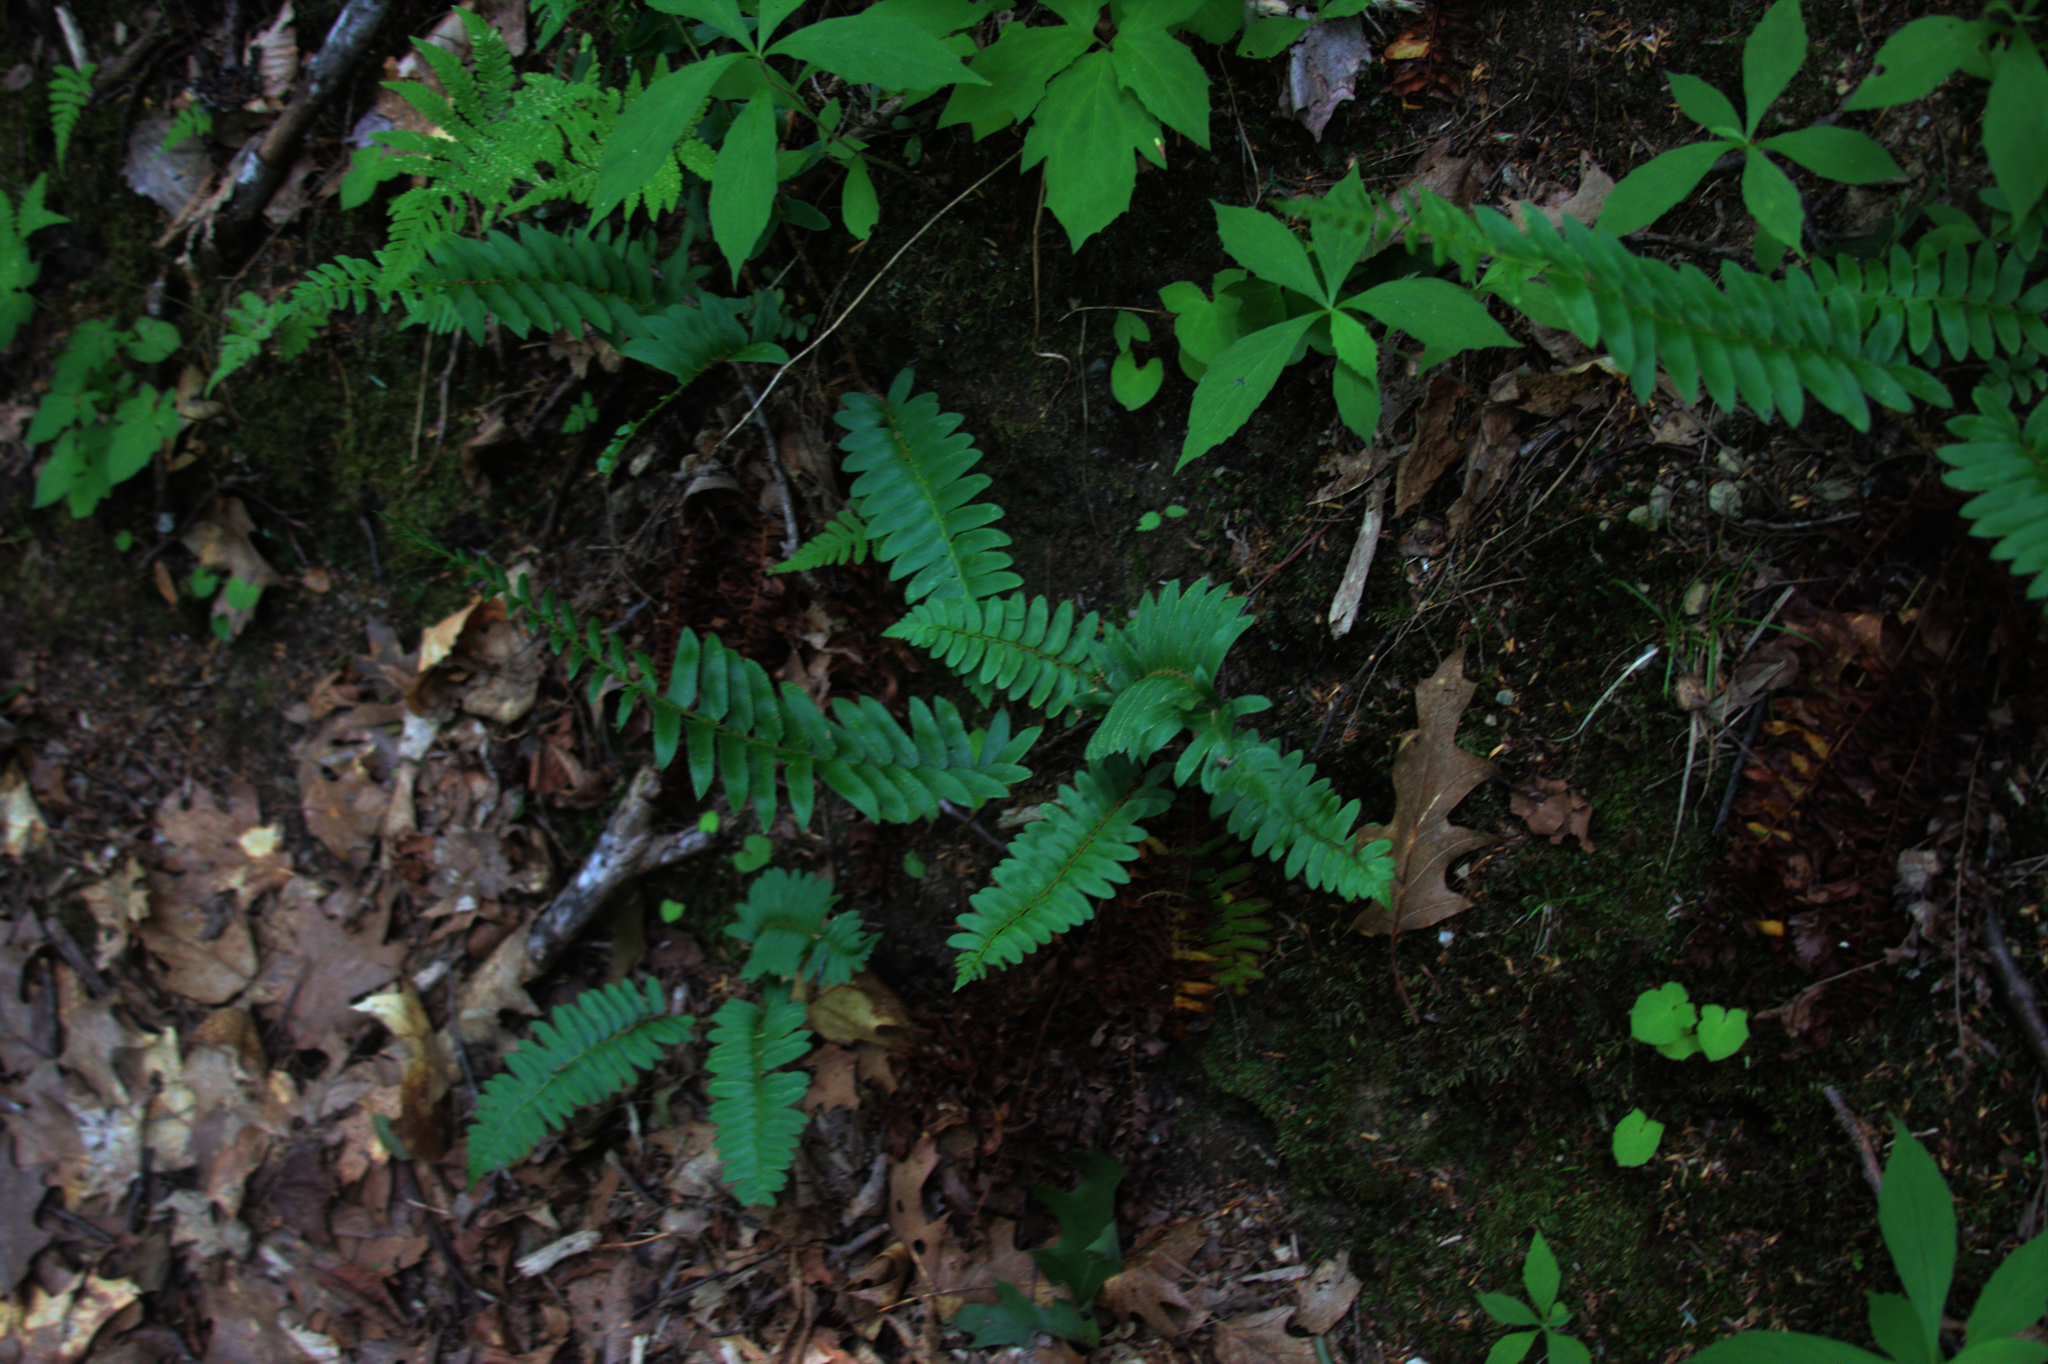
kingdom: Plantae
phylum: Tracheophyta
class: Polypodiopsida
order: Polypodiales
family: Dryopteridaceae
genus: Polystichum
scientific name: Polystichum acrostichoides
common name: Christmas fern
